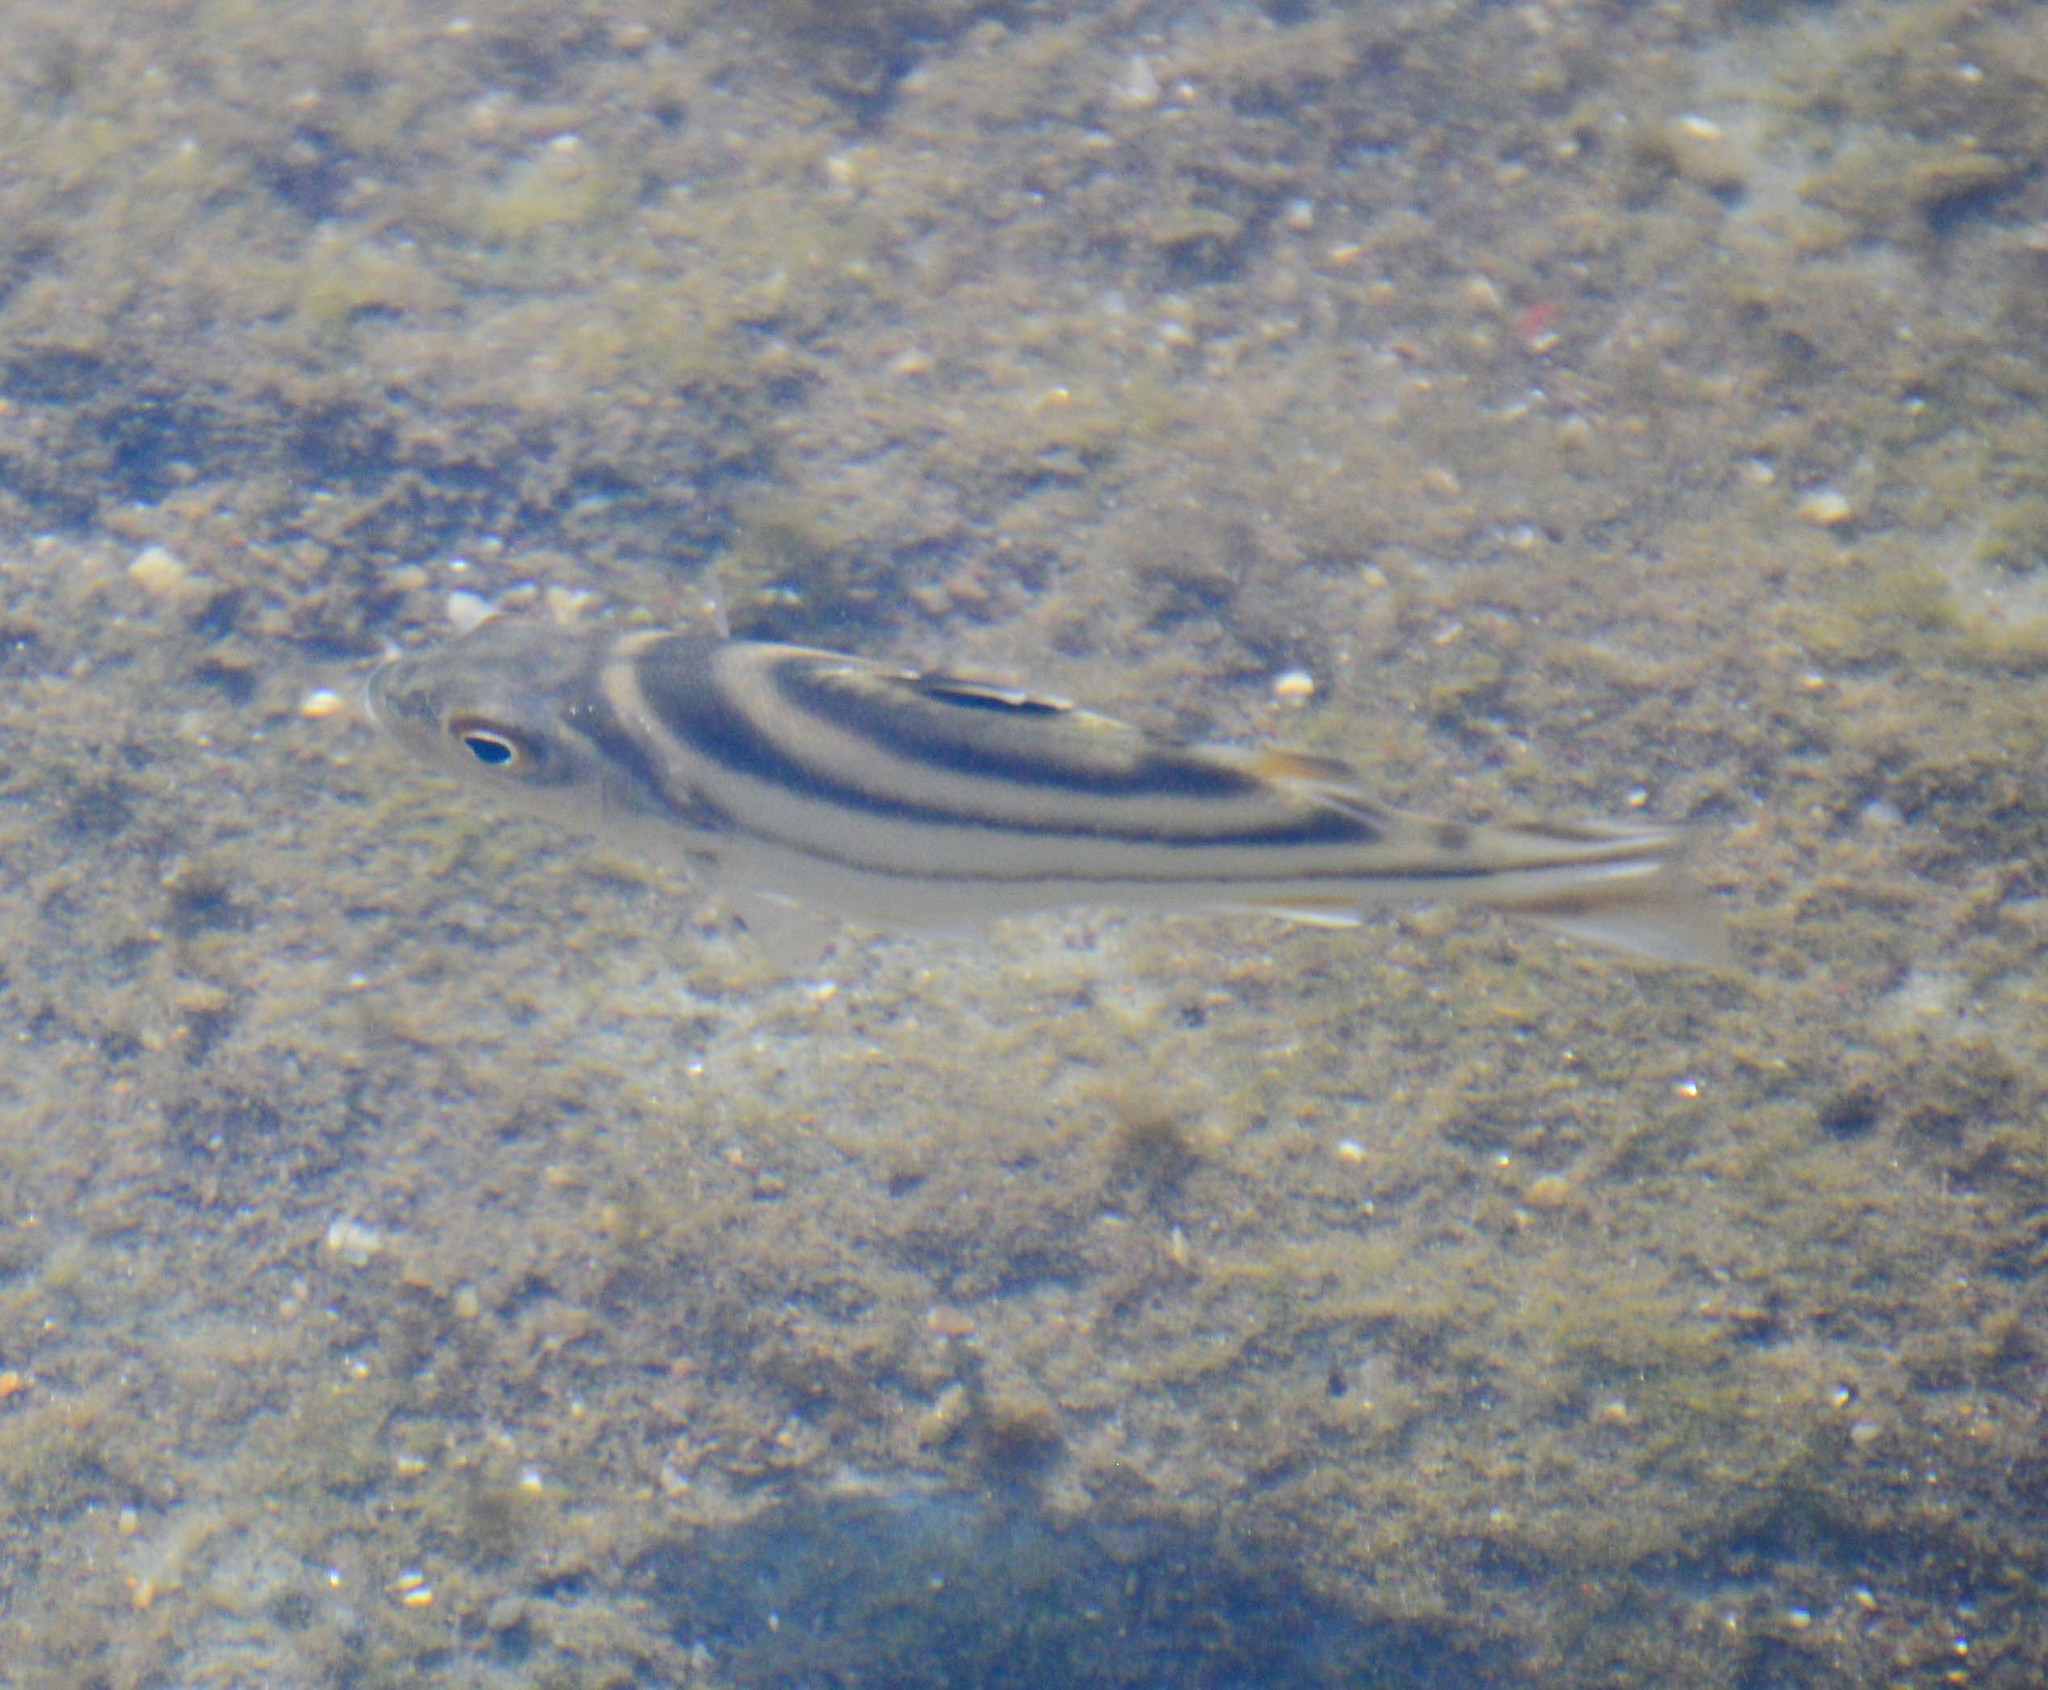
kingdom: Animalia
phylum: Chordata
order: Perciformes
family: Terapontidae
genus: Terapon
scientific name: Terapon jarbua
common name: Jarbua terapon
